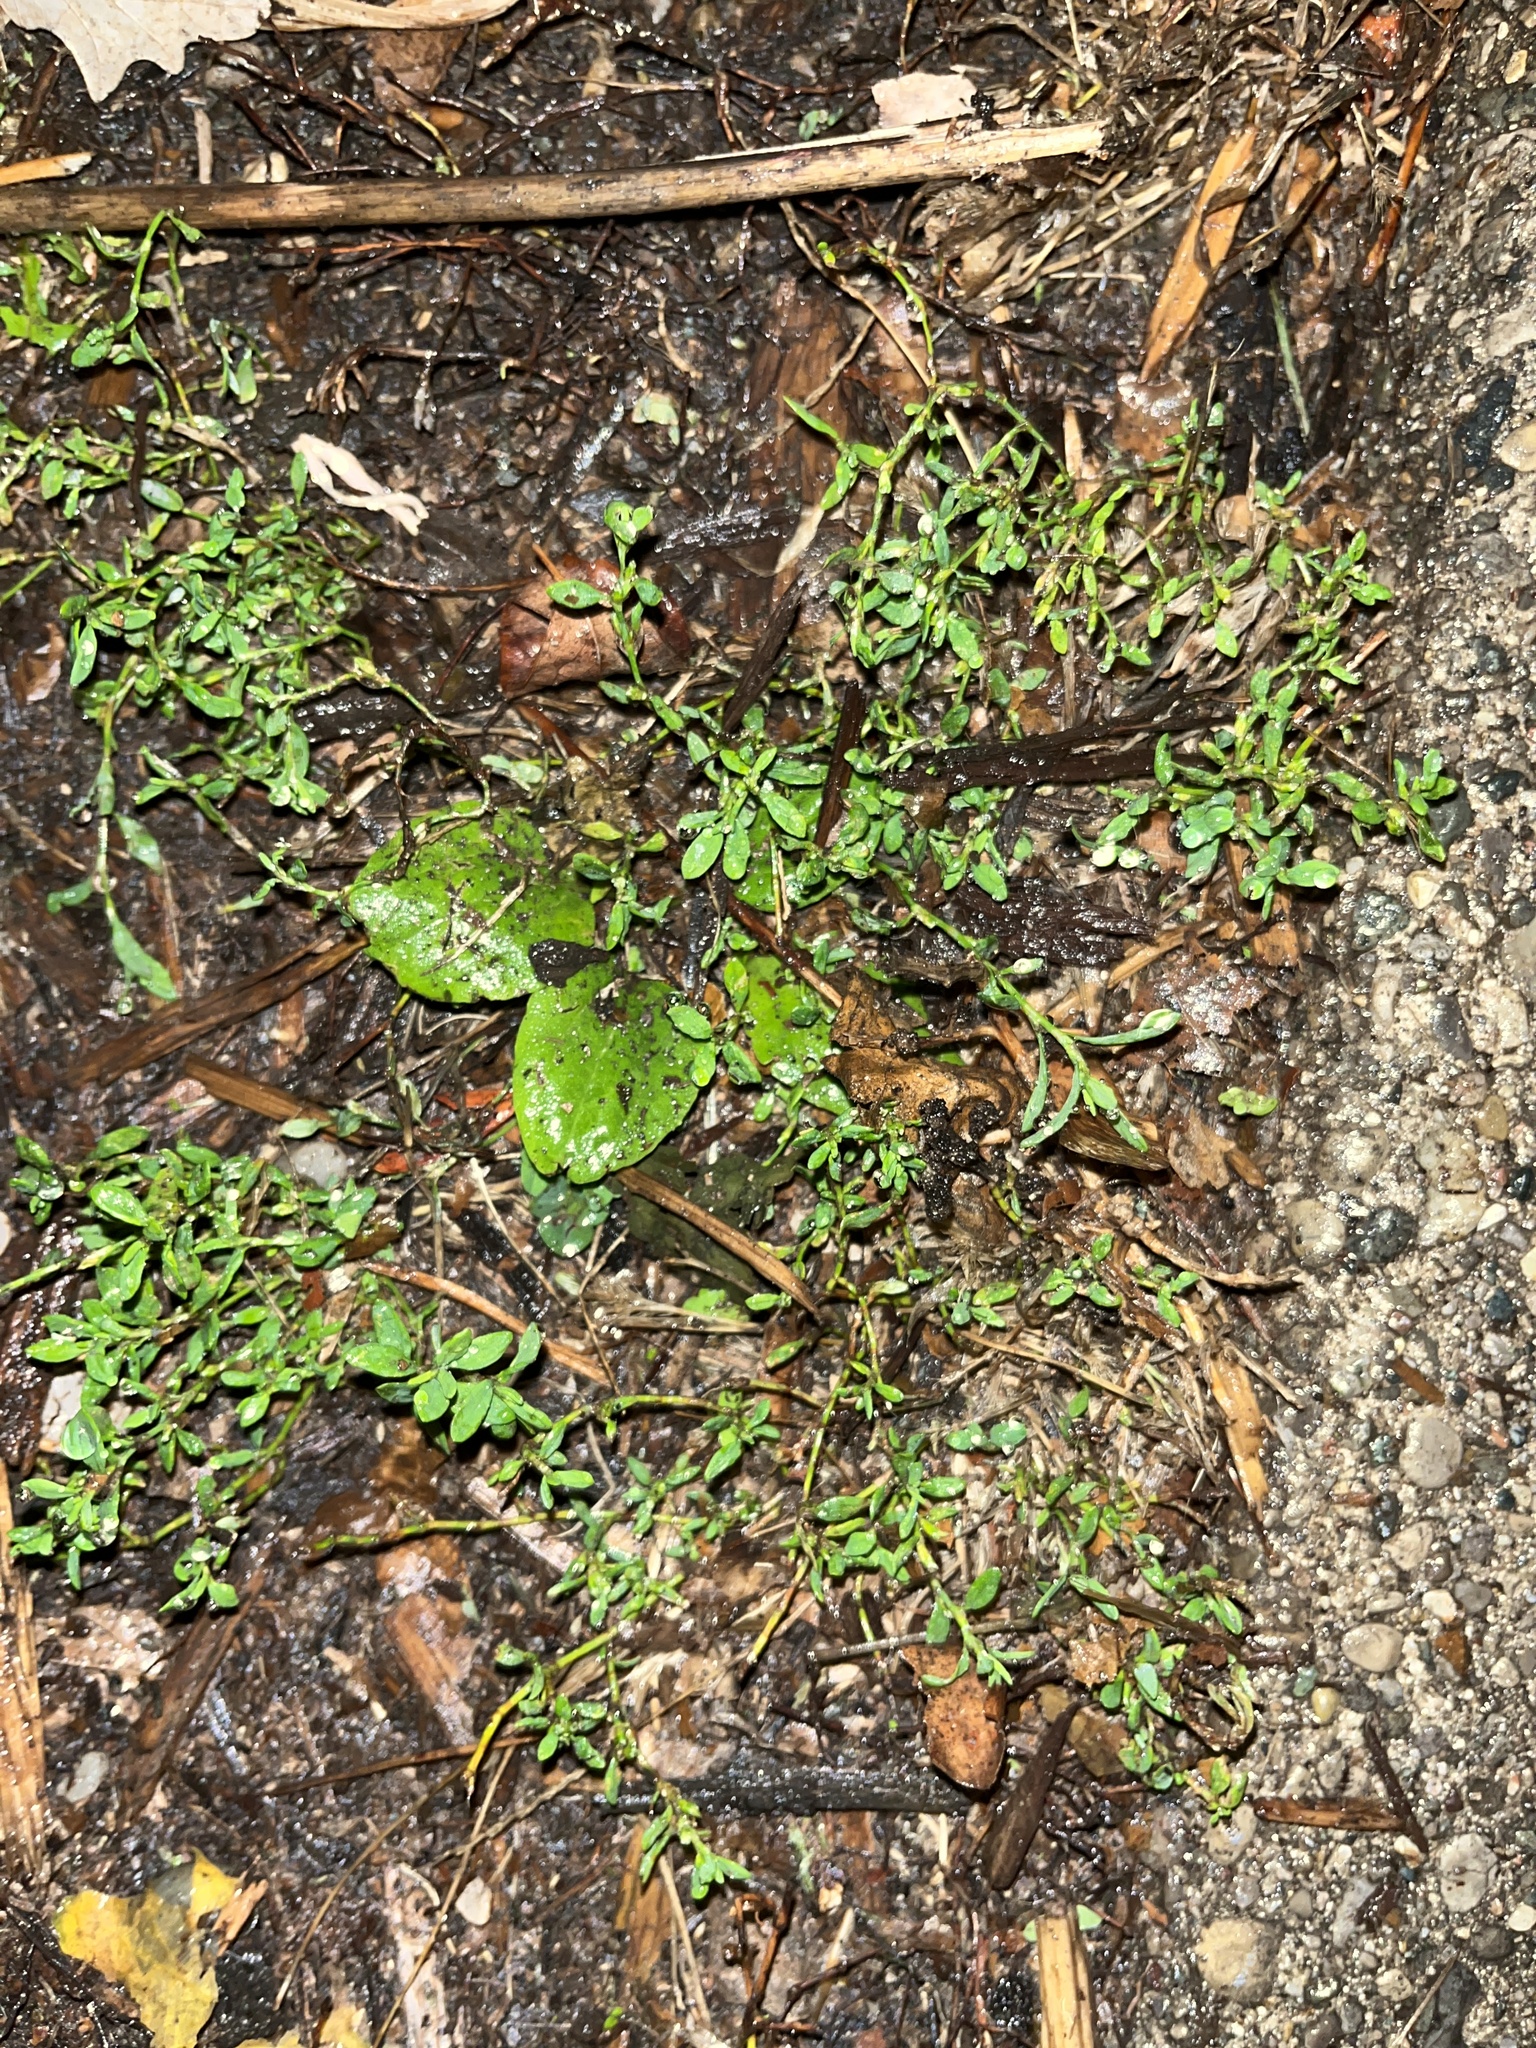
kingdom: Plantae
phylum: Tracheophyta
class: Magnoliopsida
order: Caryophyllales
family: Polygonaceae
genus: Polygonum
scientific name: Polygonum aviculare
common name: Prostrate knotweed
